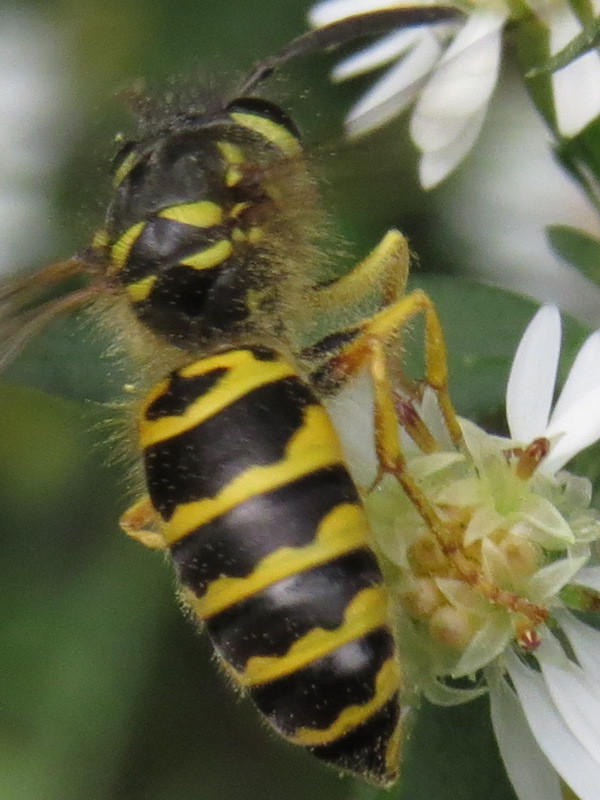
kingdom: Animalia
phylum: Arthropoda
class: Insecta
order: Hymenoptera
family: Vespidae
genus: Vespula
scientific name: Vespula maculifrons
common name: Eastern yellowjacket
